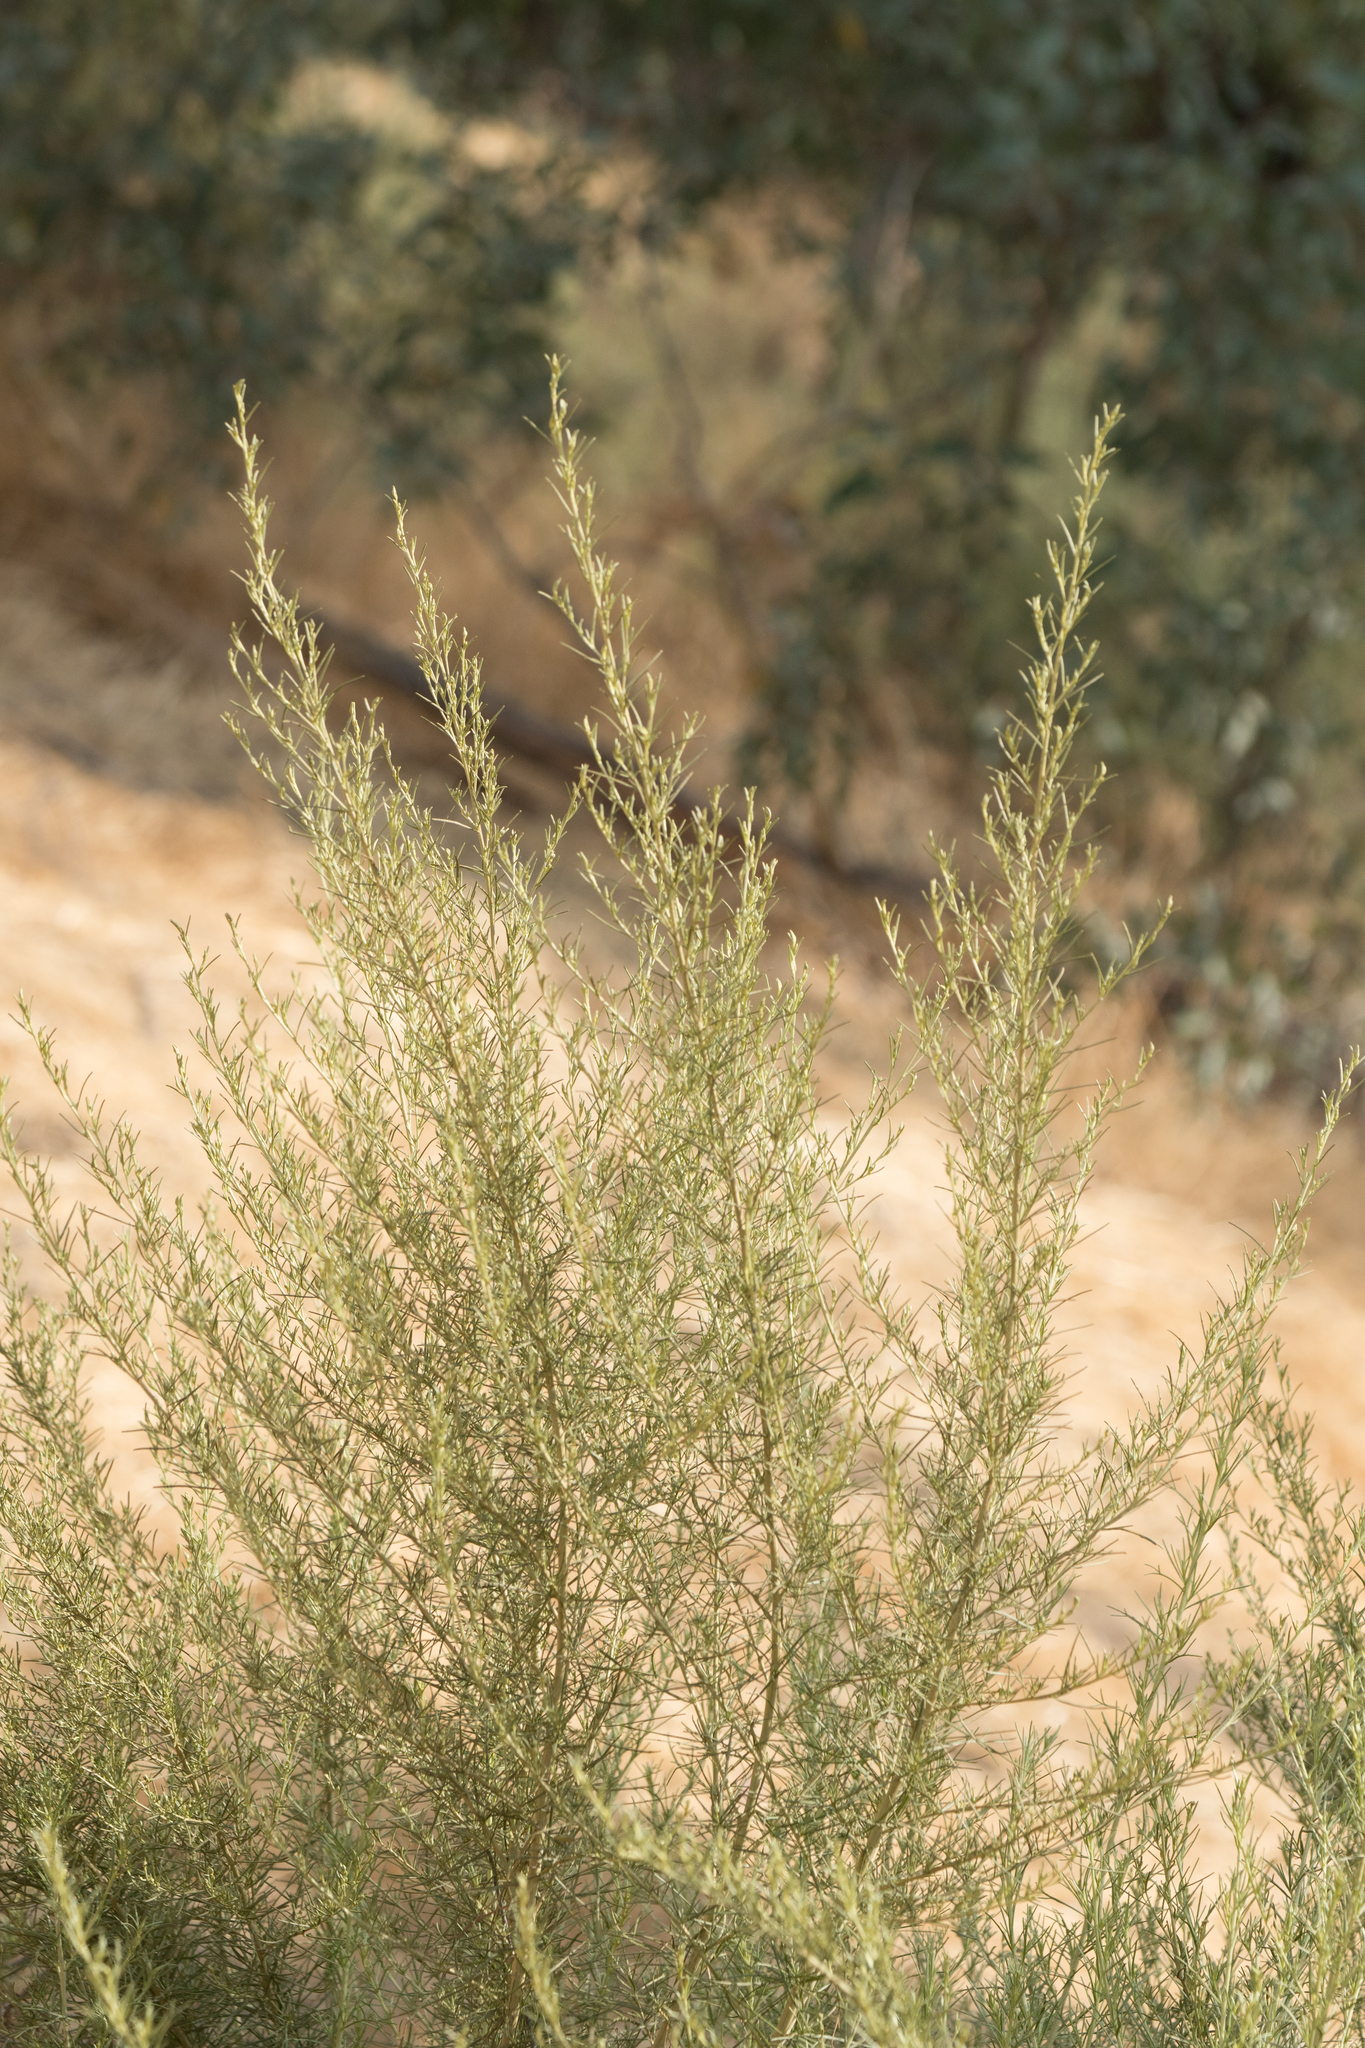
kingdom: Plantae
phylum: Tracheophyta
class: Magnoliopsida
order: Asterales
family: Asteraceae
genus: Artemisia
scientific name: Artemisia californica
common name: California sagebrush
